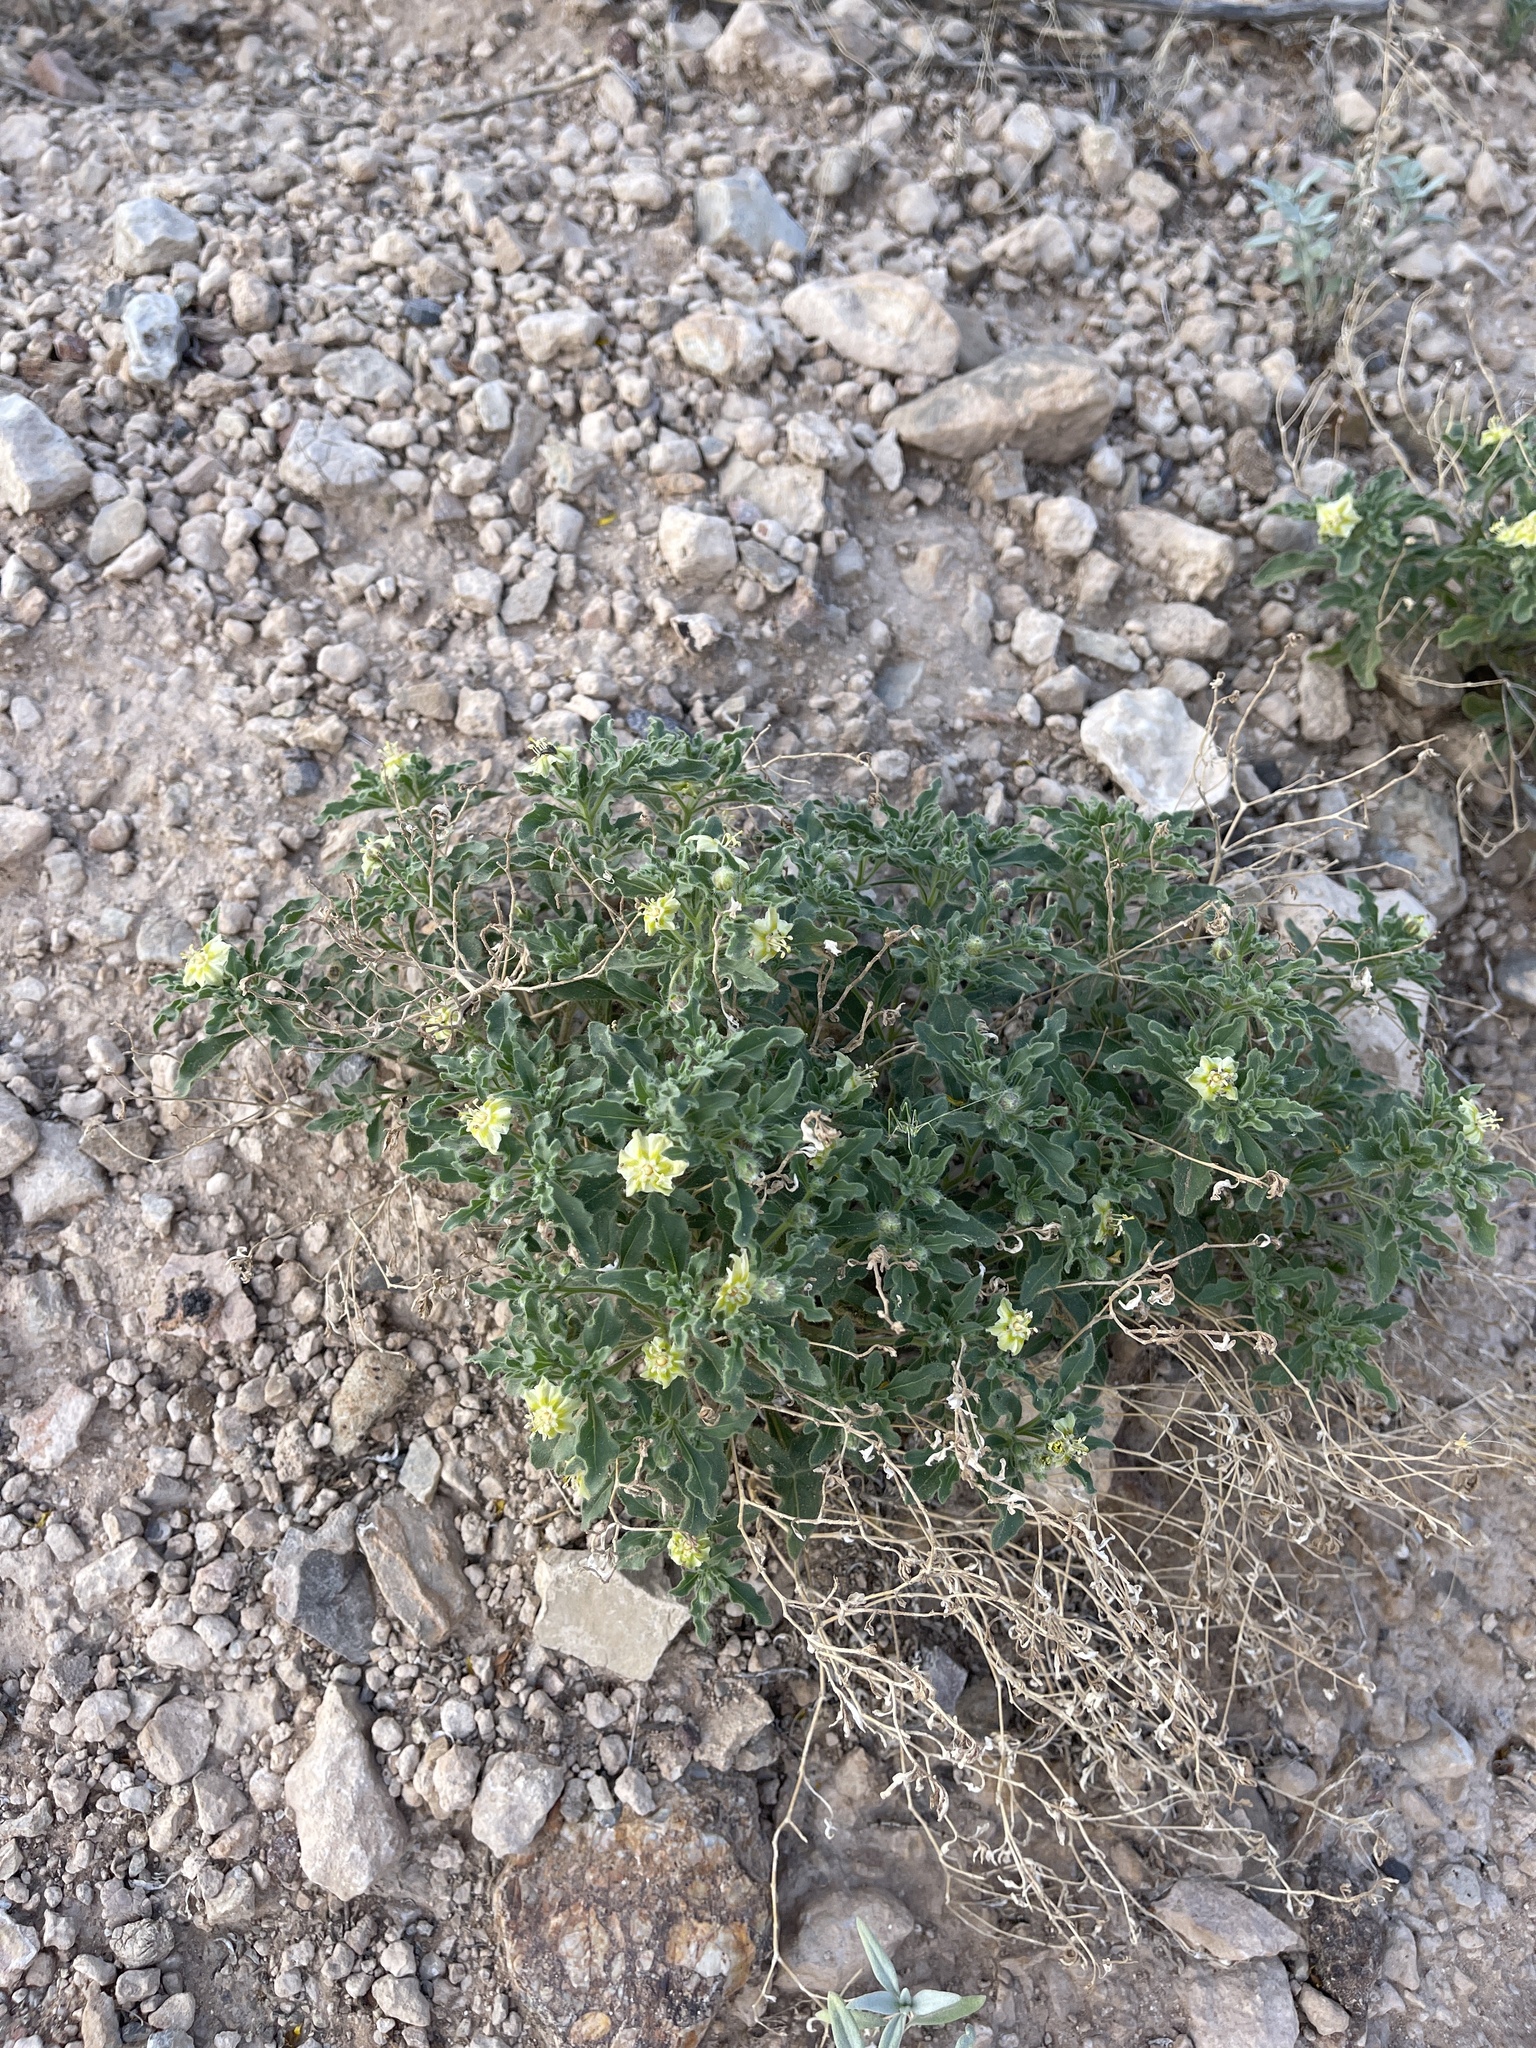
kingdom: Plantae
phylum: Tracheophyta
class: Magnoliopsida
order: Solanales
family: Solanaceae
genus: Chamaesaracha
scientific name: Chamaesaracha sordida
